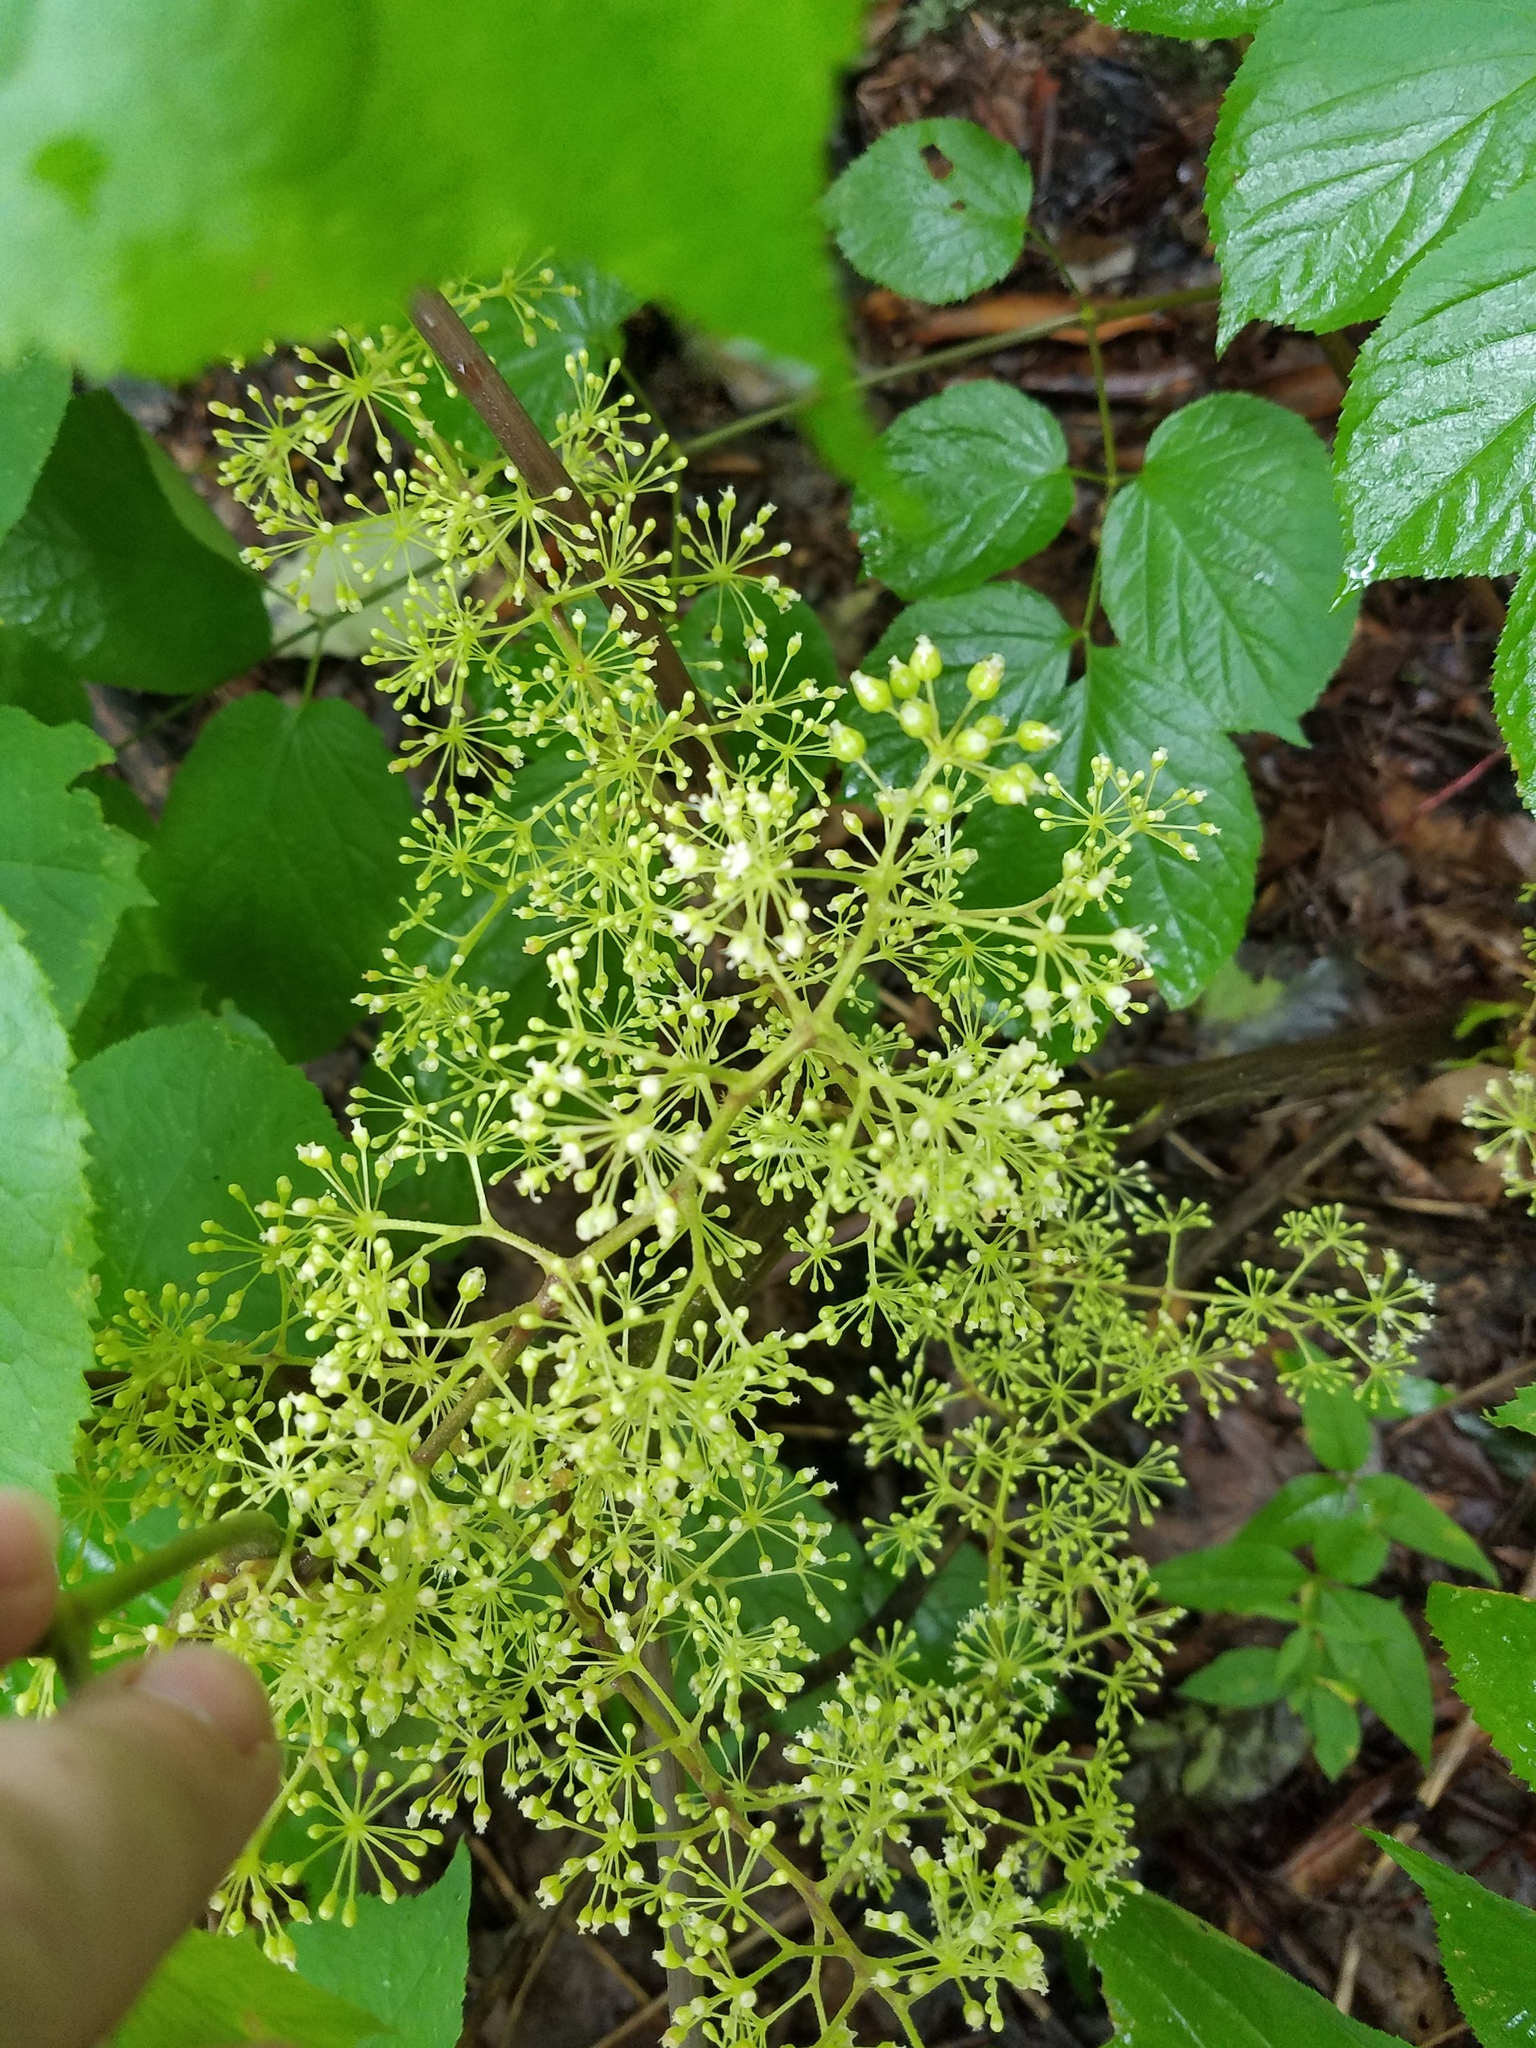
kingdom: Plantae
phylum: Tracheophyta
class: Magnoliopsida
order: Apiales
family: Araliaceae
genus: Aralia
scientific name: Aralia racemosa
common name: American-spikenard
